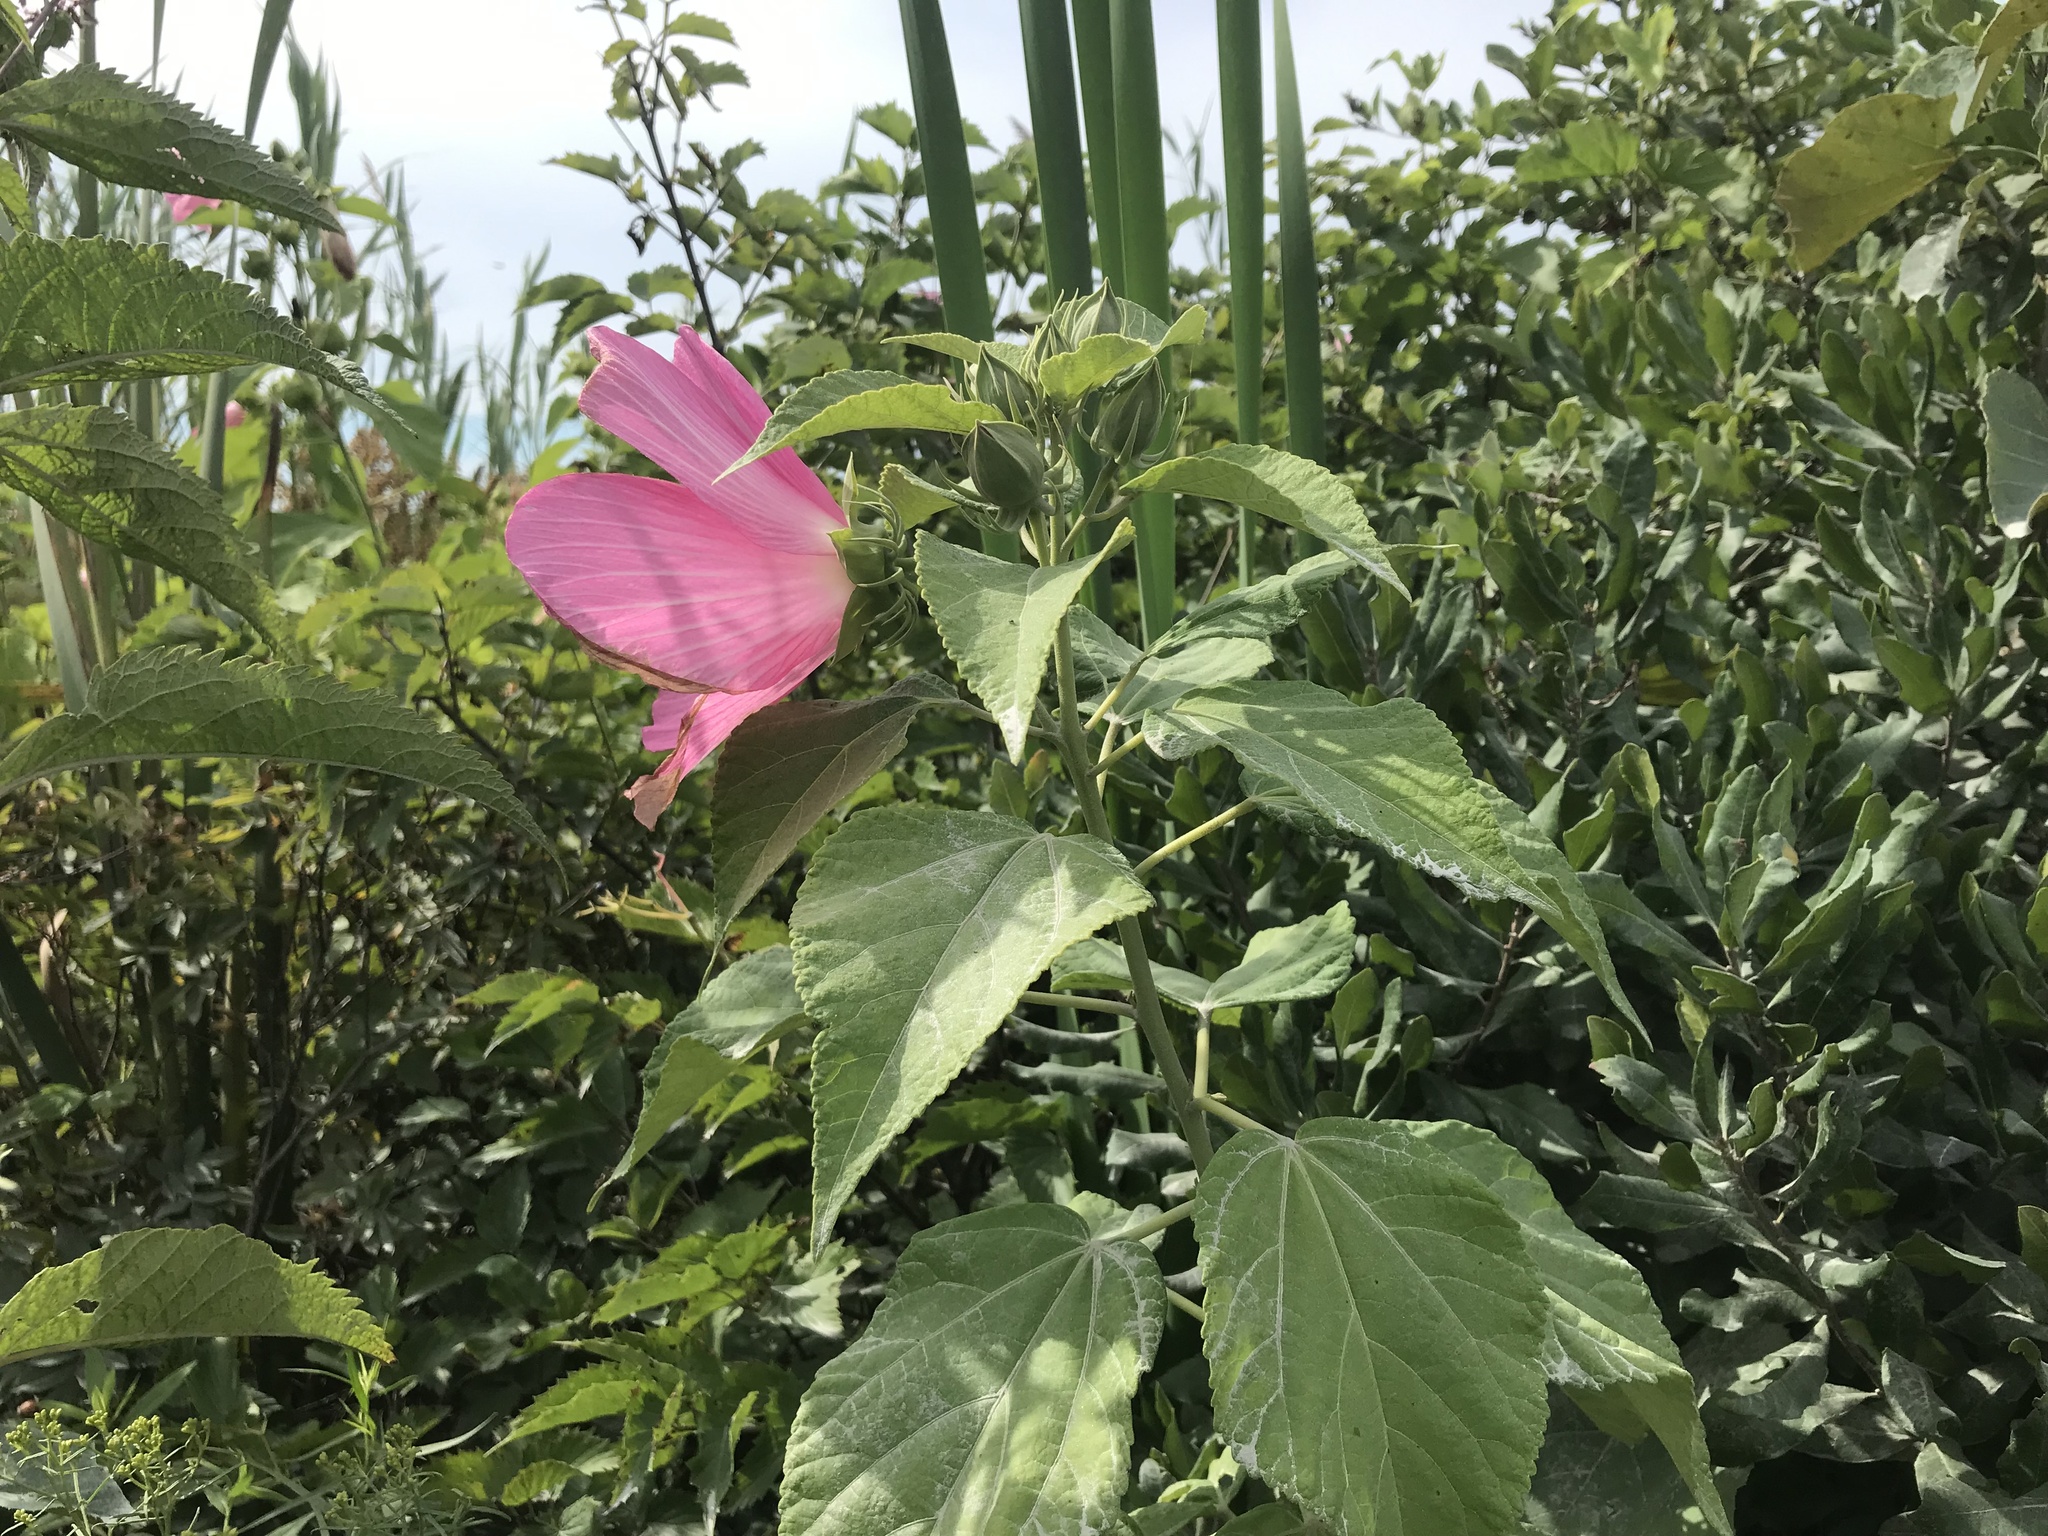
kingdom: Plantae
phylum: Tracheophyta
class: Magnoliopsida
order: Malvales
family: Malvaceae
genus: Hibiscus
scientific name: Hibiscus moscheutos
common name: Common rose-mallow
